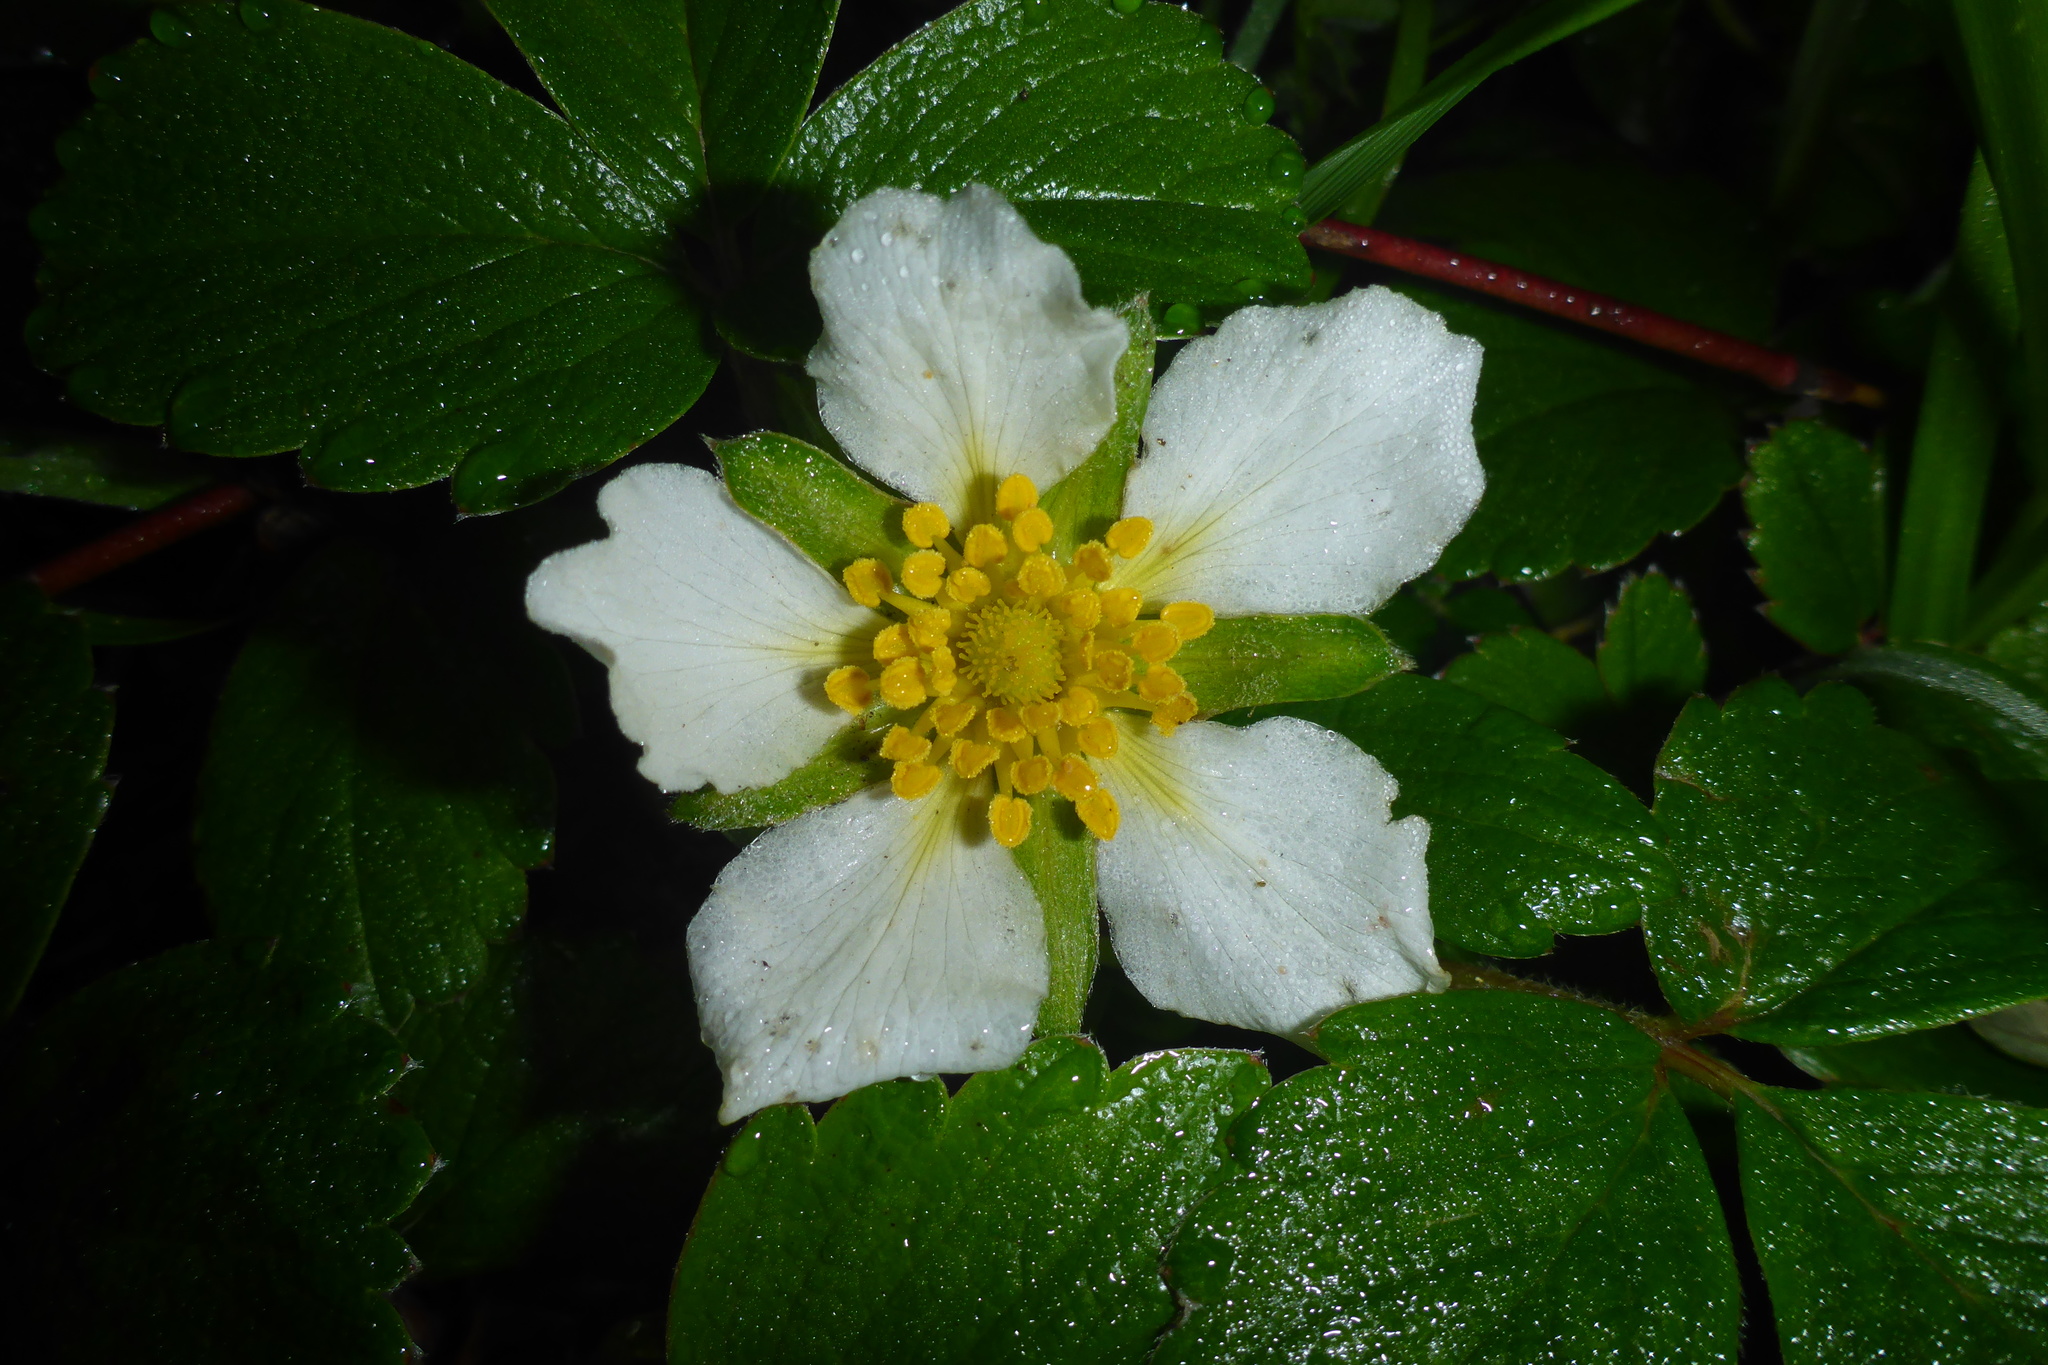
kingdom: Plantae
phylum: Tracheophyta
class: Magnoliopsida
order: Rosales
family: Rosaceae
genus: Fragaria
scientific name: Fragaria chiloensis
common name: Beach strawberry
